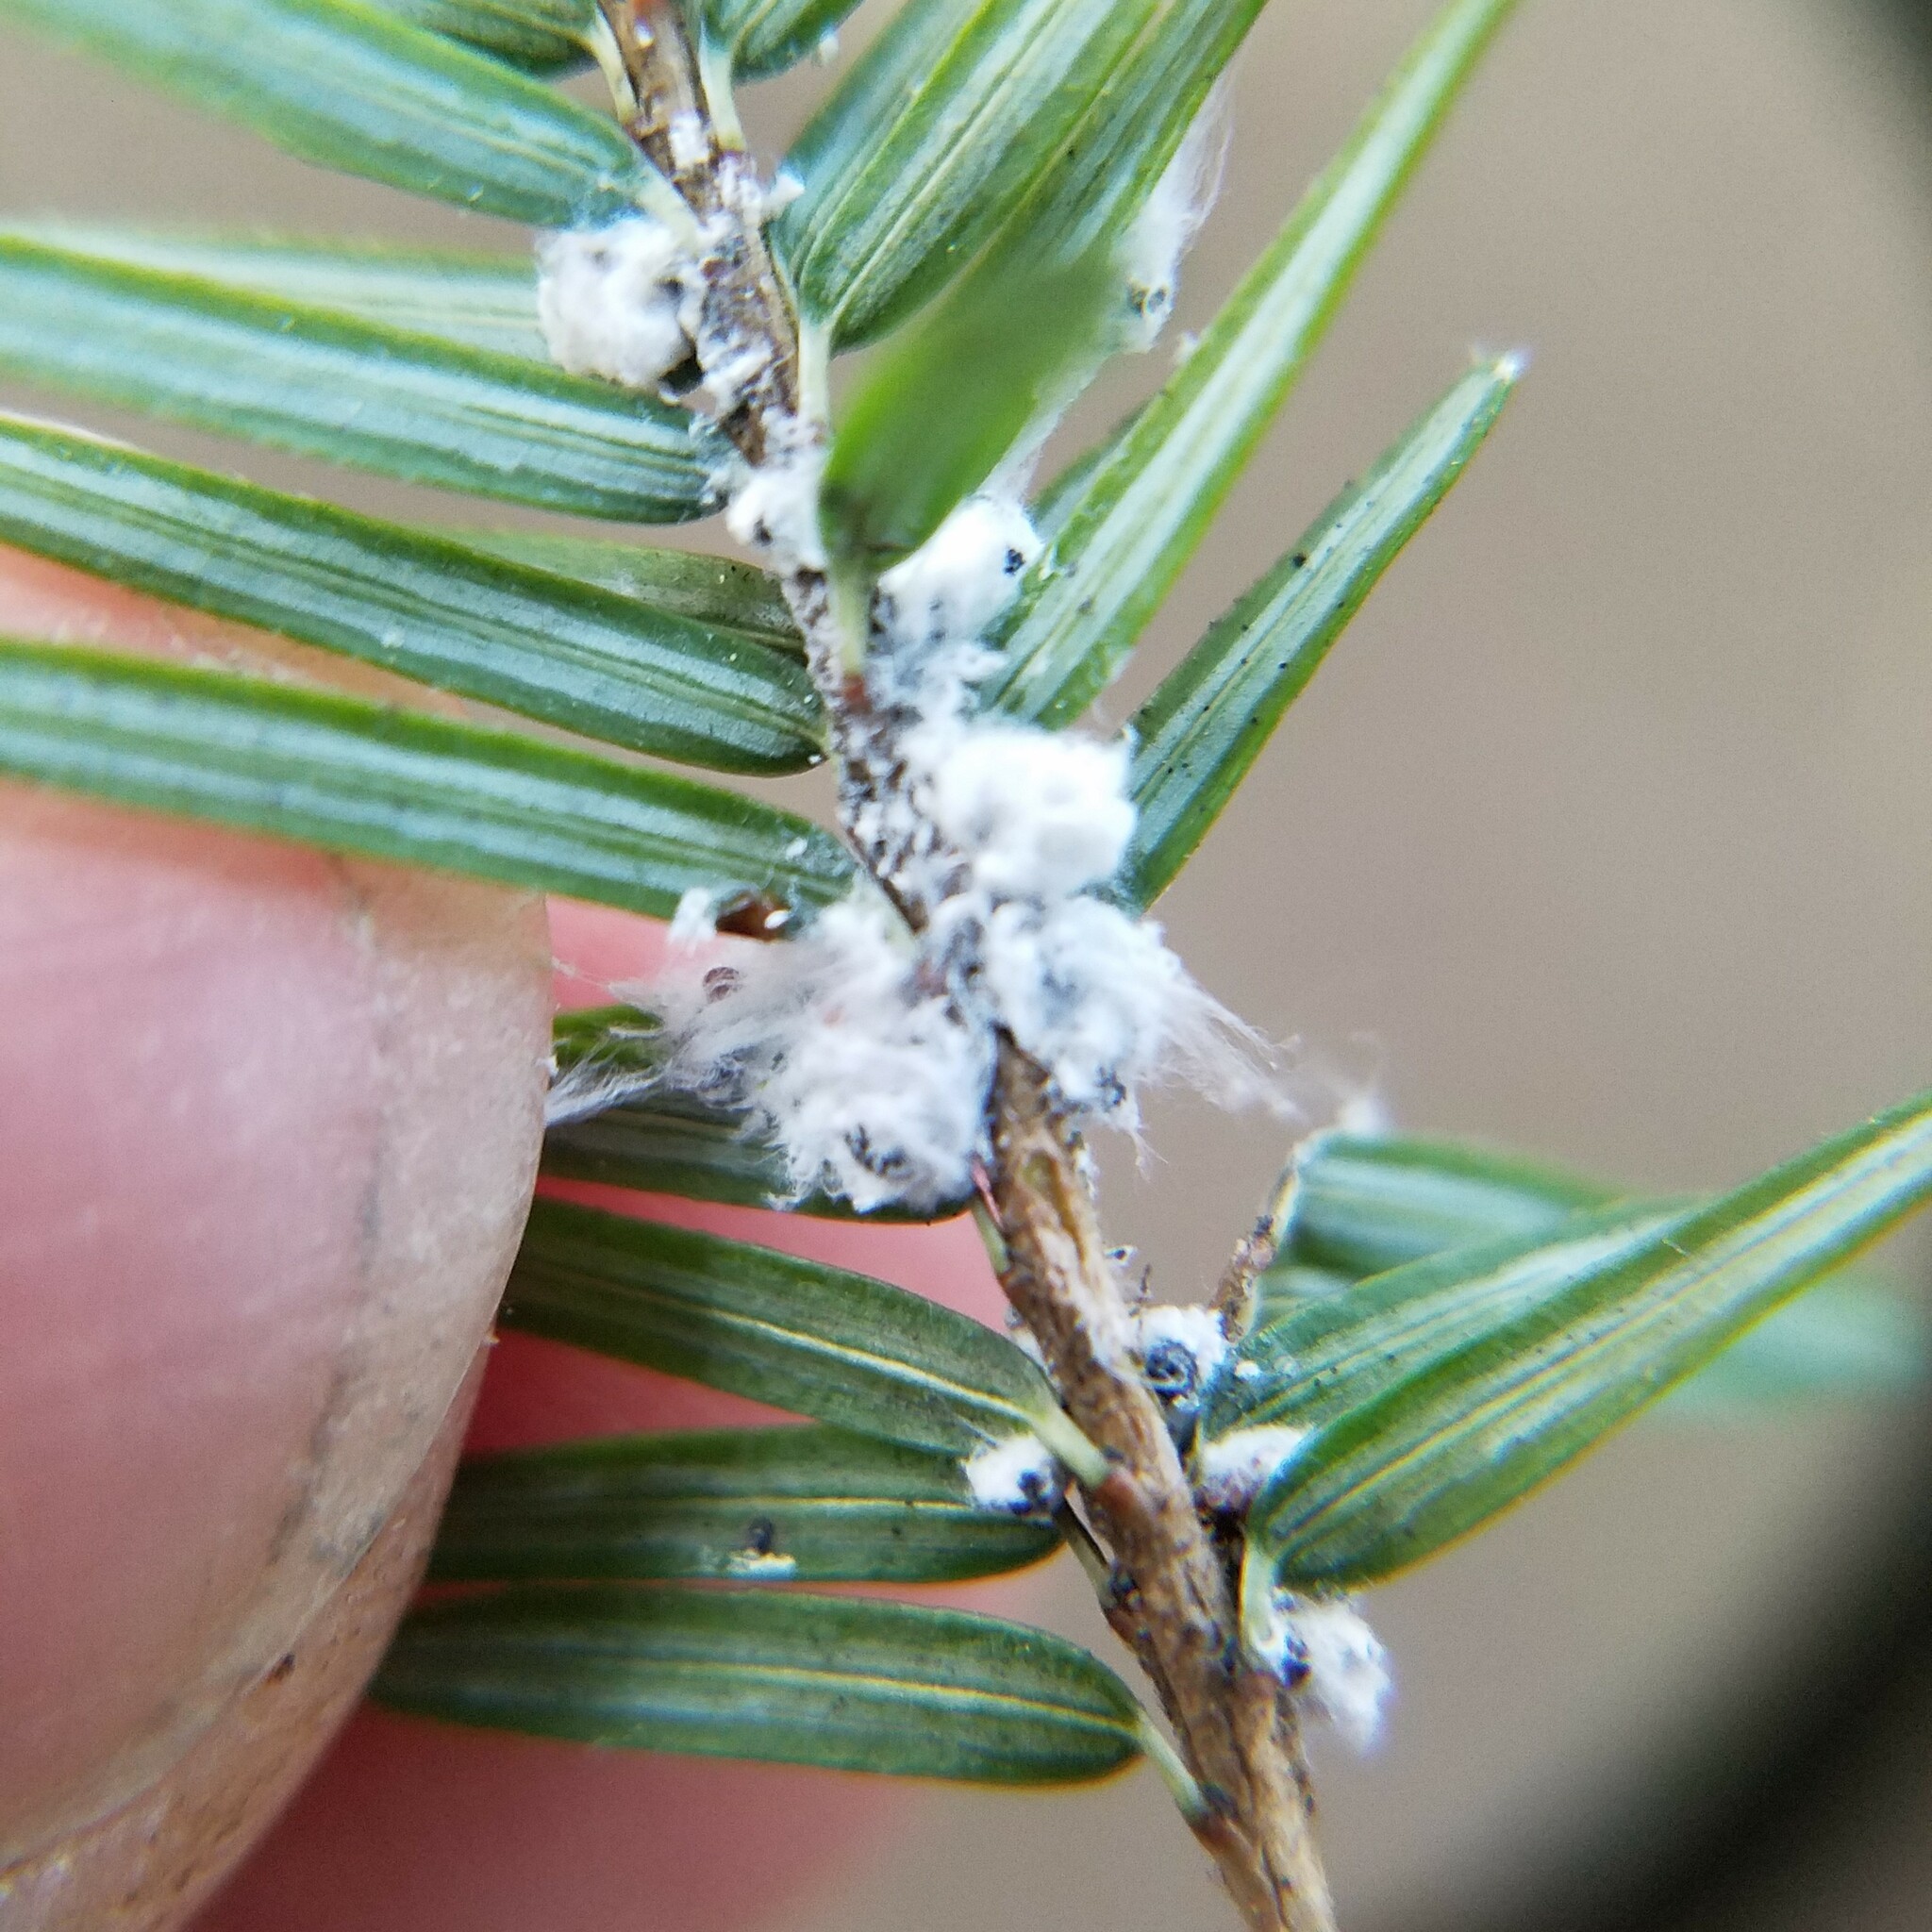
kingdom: Animalia
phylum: Arthropoda
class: Insecta
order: Hemiptera
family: Adelgidae
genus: Adelges
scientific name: Adelges tsugae
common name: Hemlock woolly adelgid
